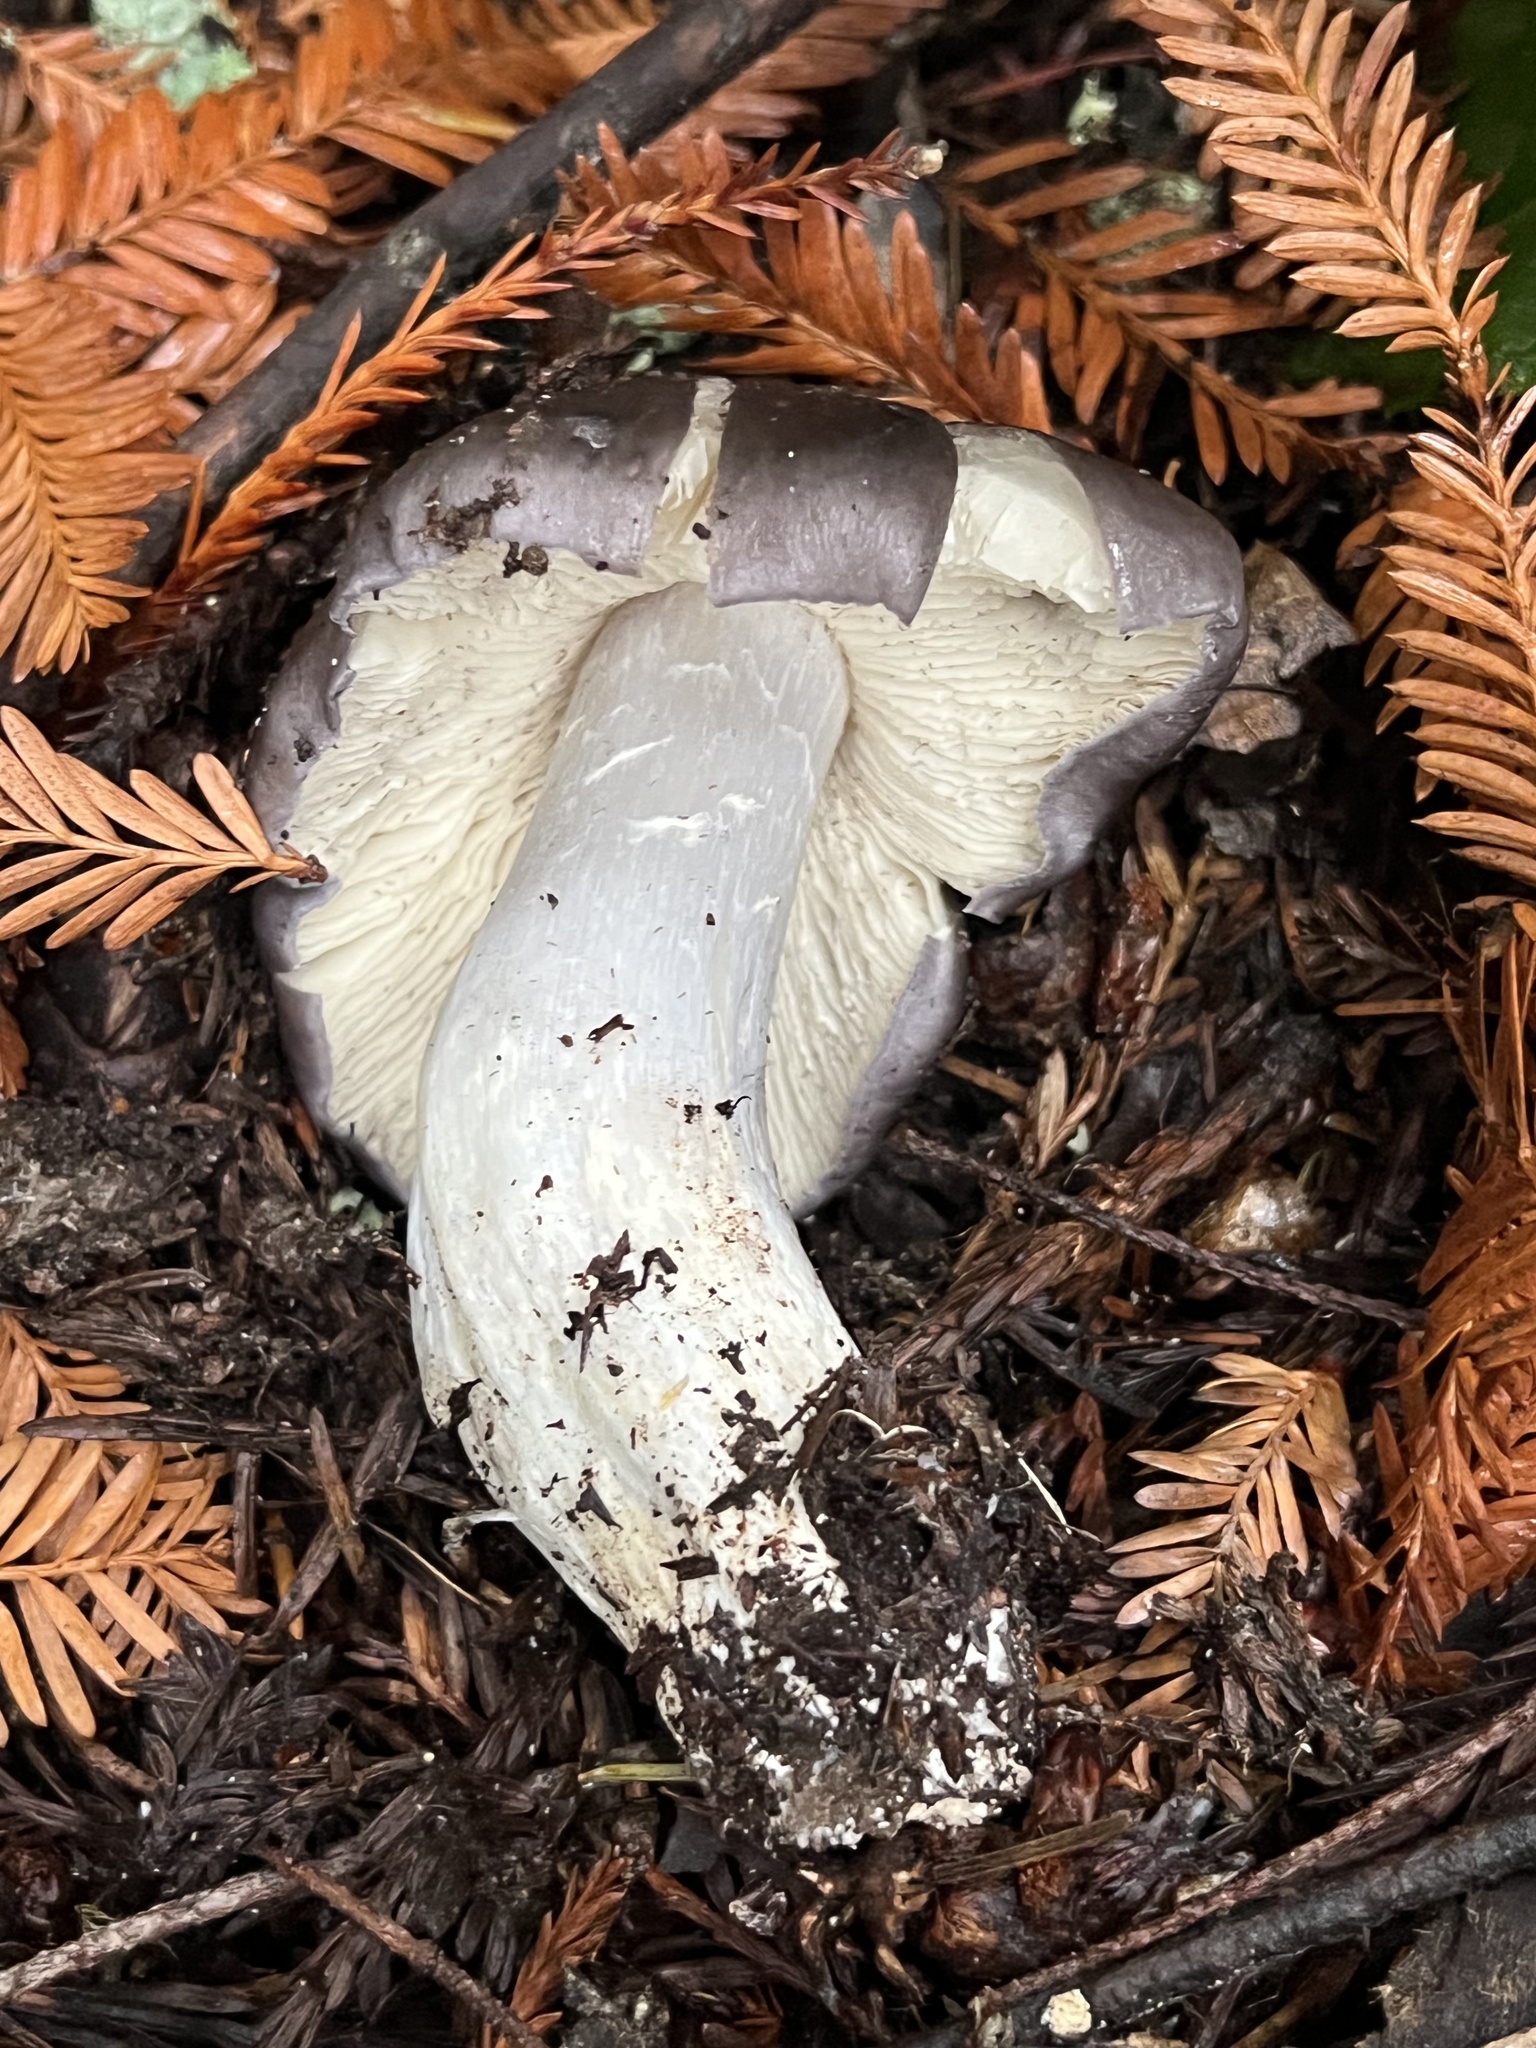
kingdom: Fungi
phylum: Basidiomycota
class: Agaricomycetes
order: Agaricales
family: Entolomataceae
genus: Entoloma
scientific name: Entoloma medianox
